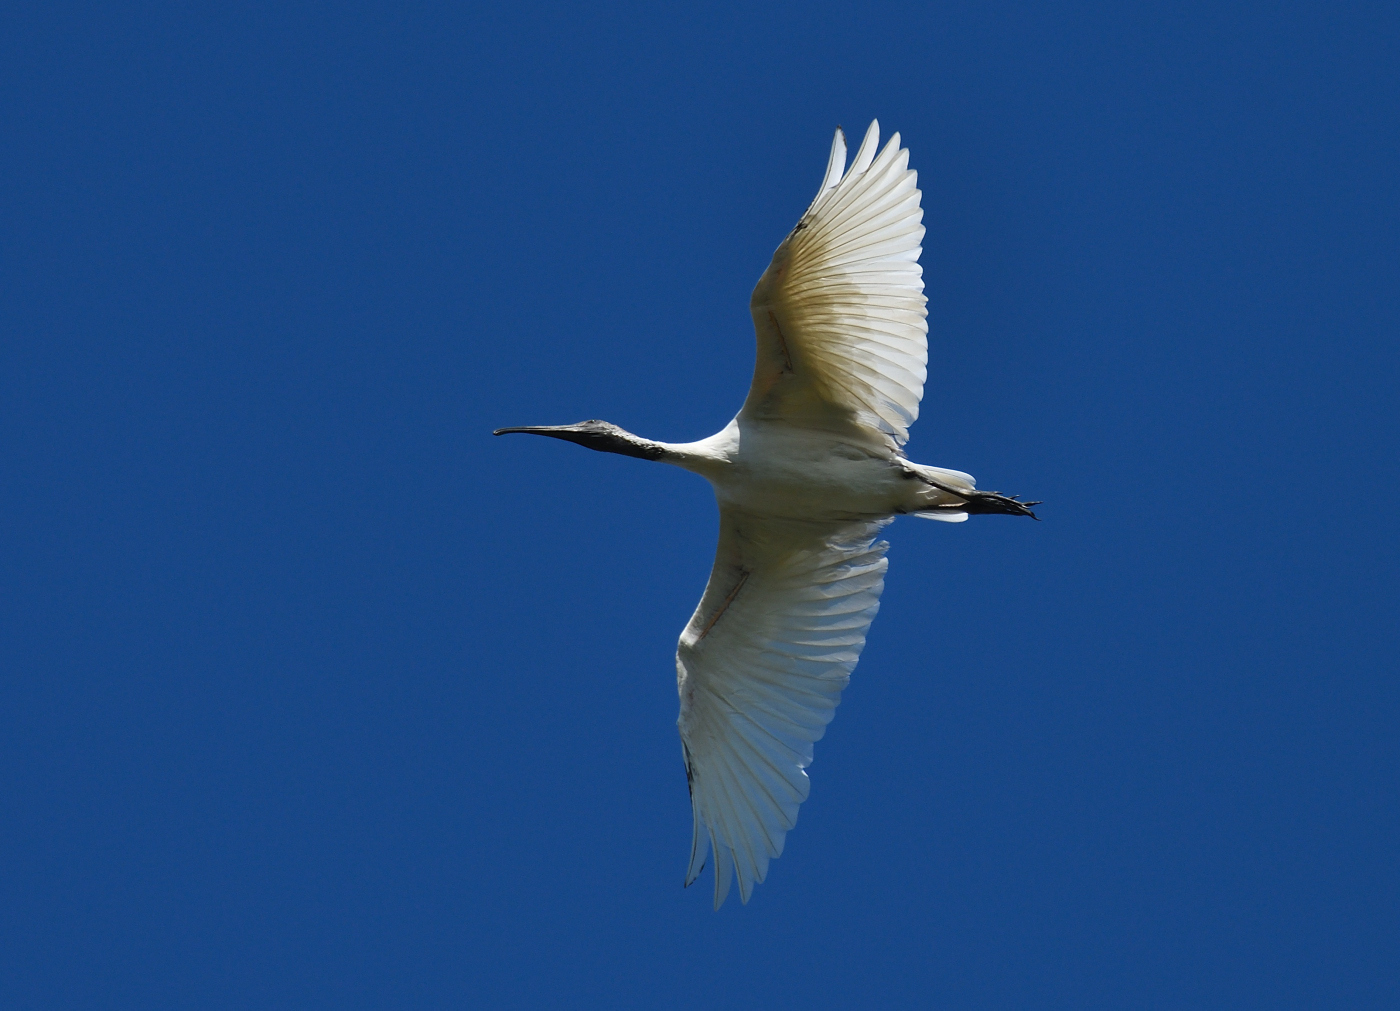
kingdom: Animalia
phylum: Chordata
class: Aves
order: Pelecaniformes
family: Threskiornithidae
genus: Threskiornis
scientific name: Threskiornis melanocephalus
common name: Black-headed ibis
